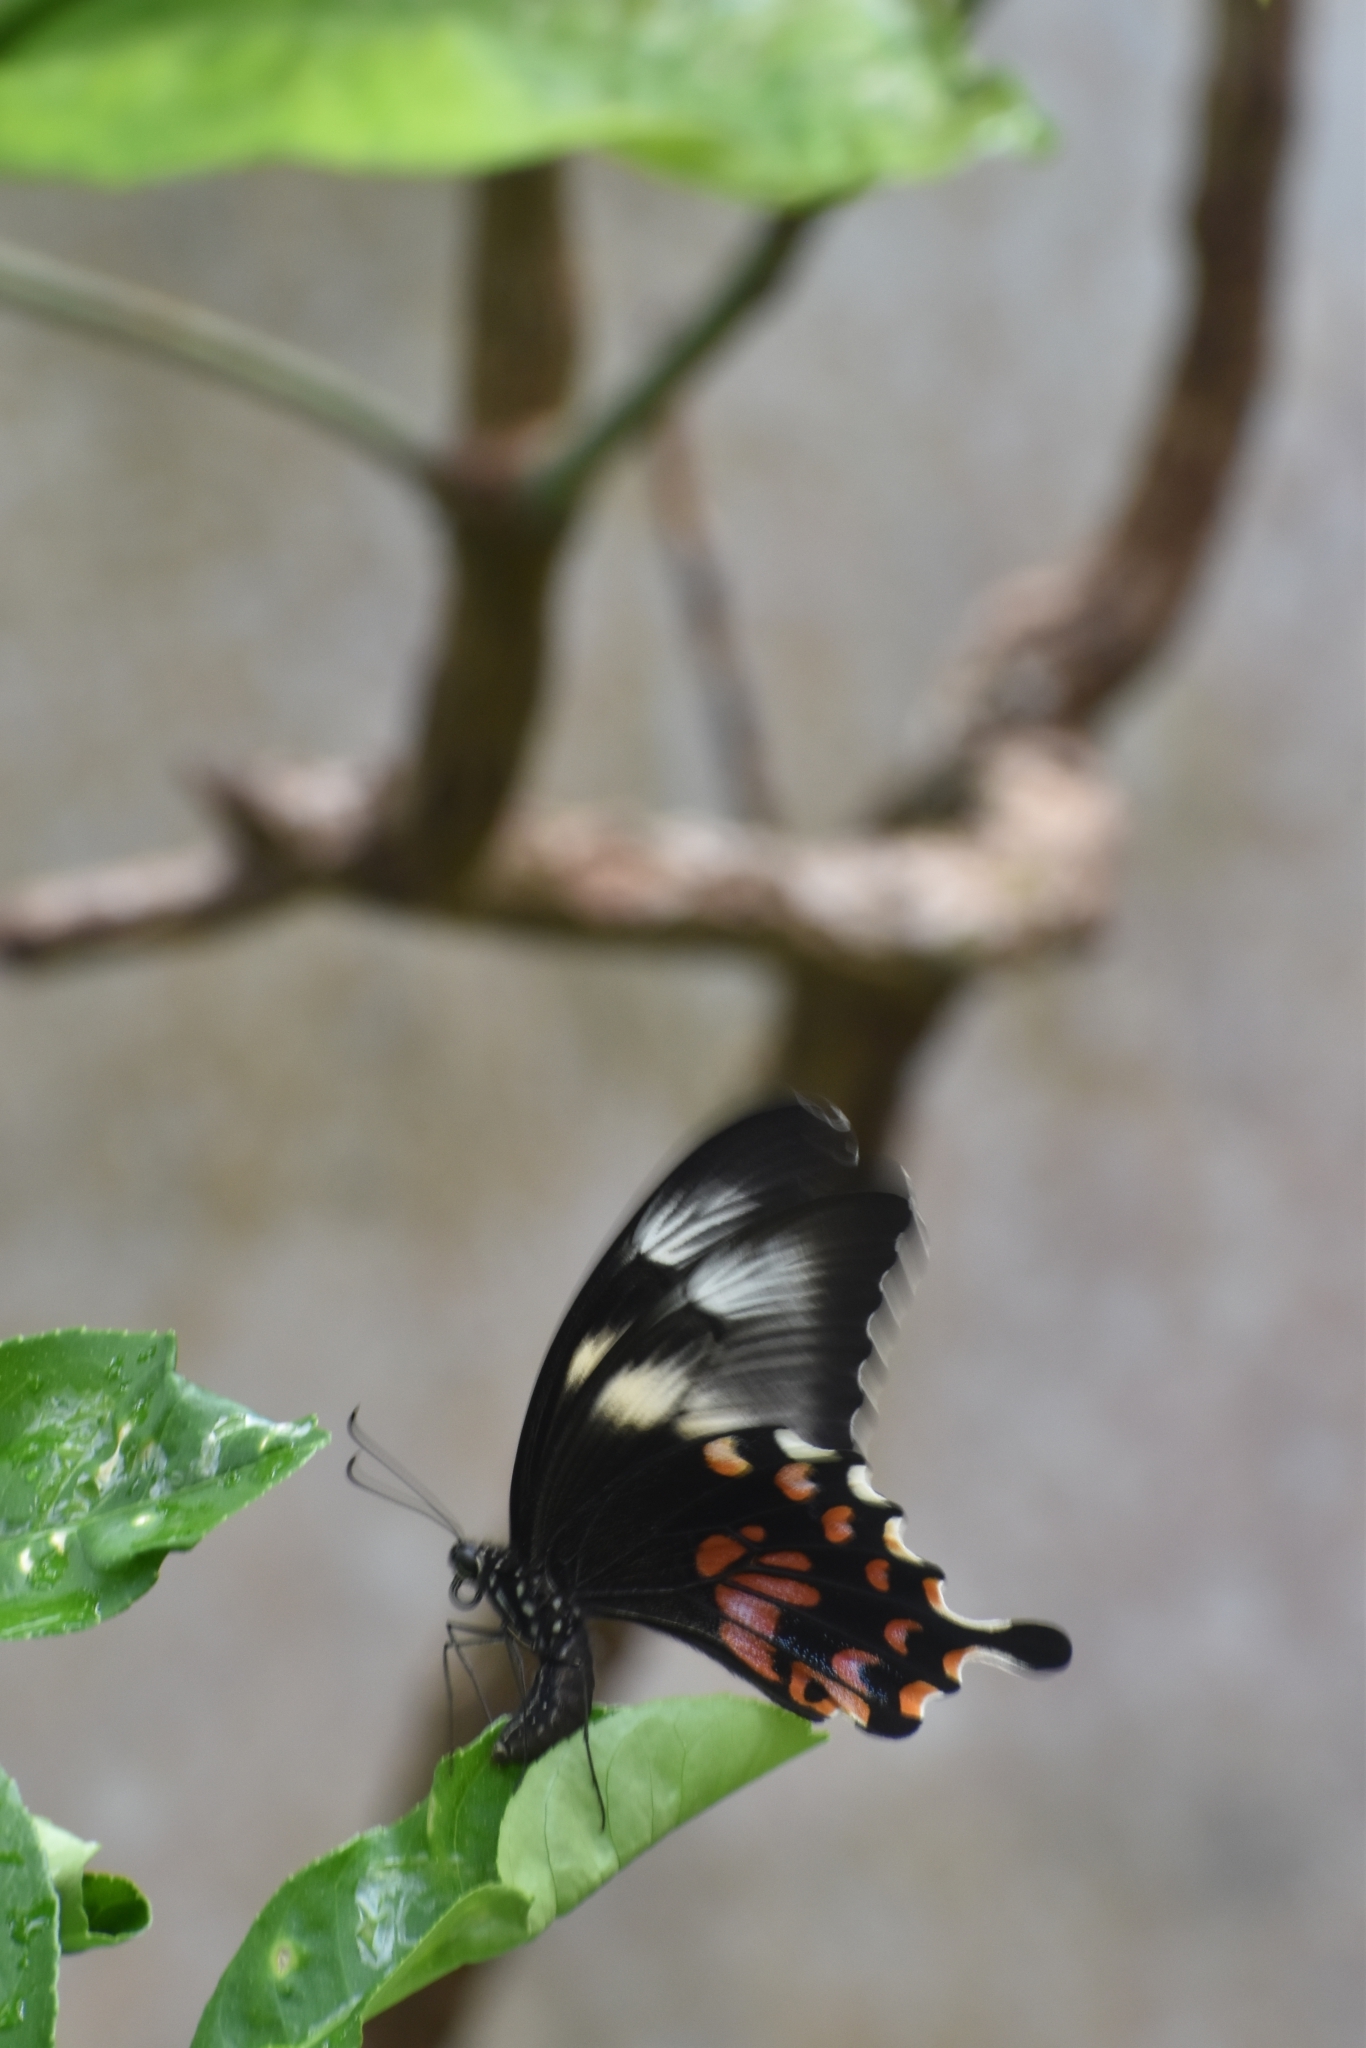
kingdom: Animalia
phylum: Arthropoda
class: Insecta
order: Lepidoptera
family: Papilionidae
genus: Papilio
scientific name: Papilio polytes
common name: Common mormon
